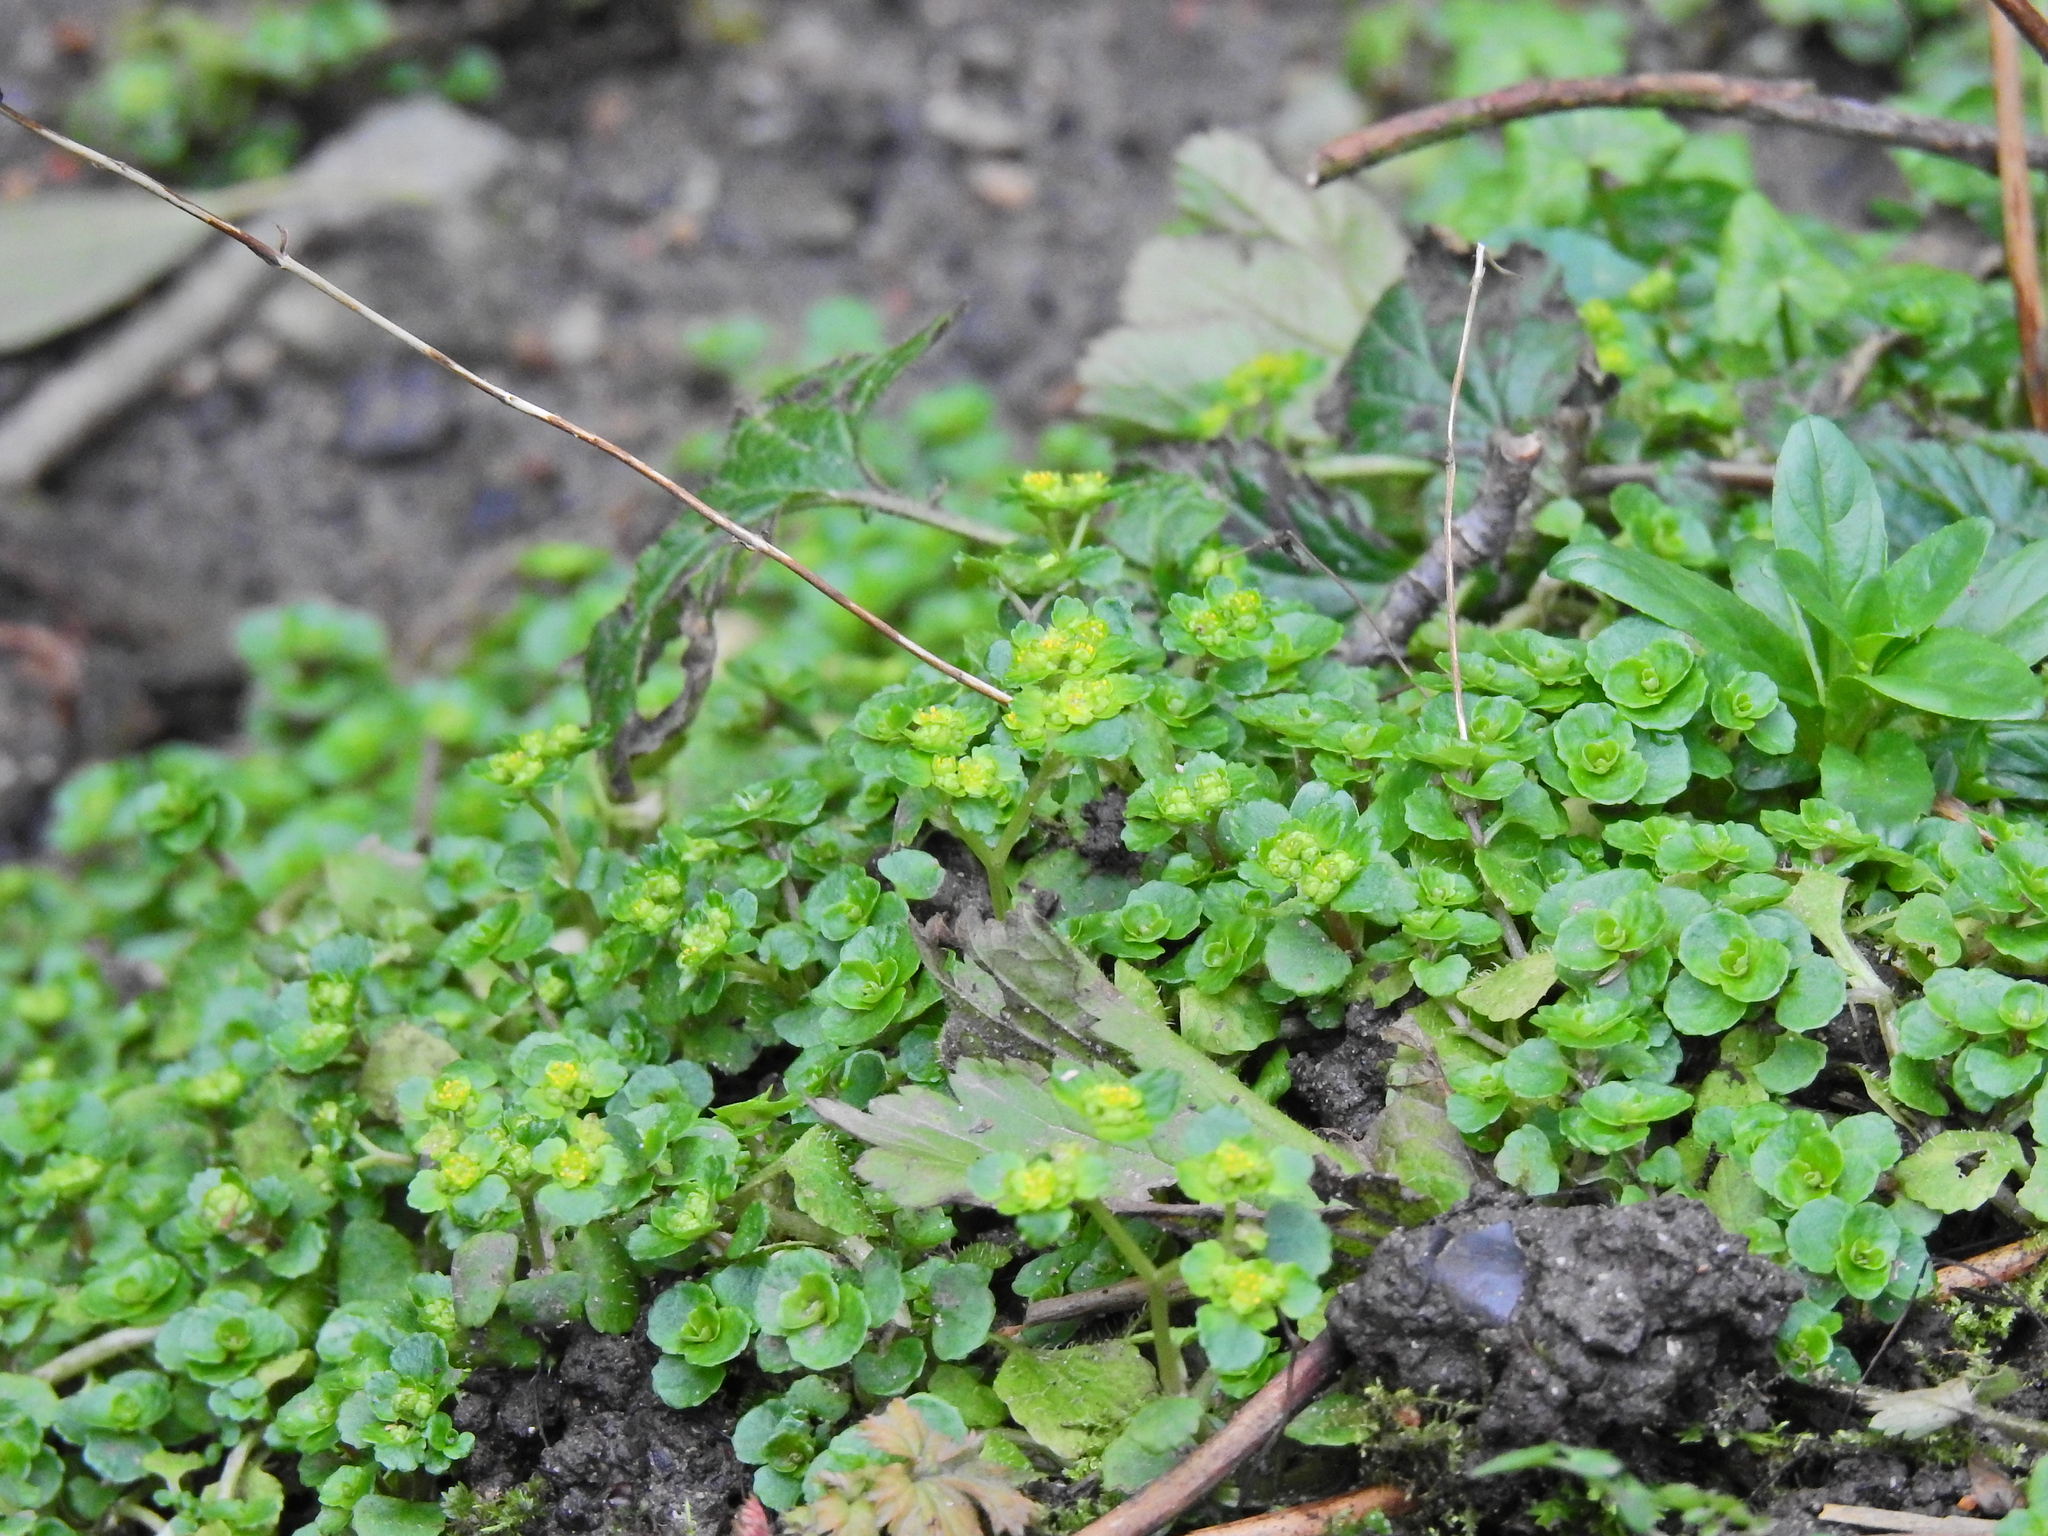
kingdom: Plantae
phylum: Tracheophyta
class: Magnoliopsida
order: Saxifragales
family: Saxifragaceae
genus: Chrysosplenium
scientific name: Chrysosplenium oppositifolium
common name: Opposite-leaved golden-saxifrage
